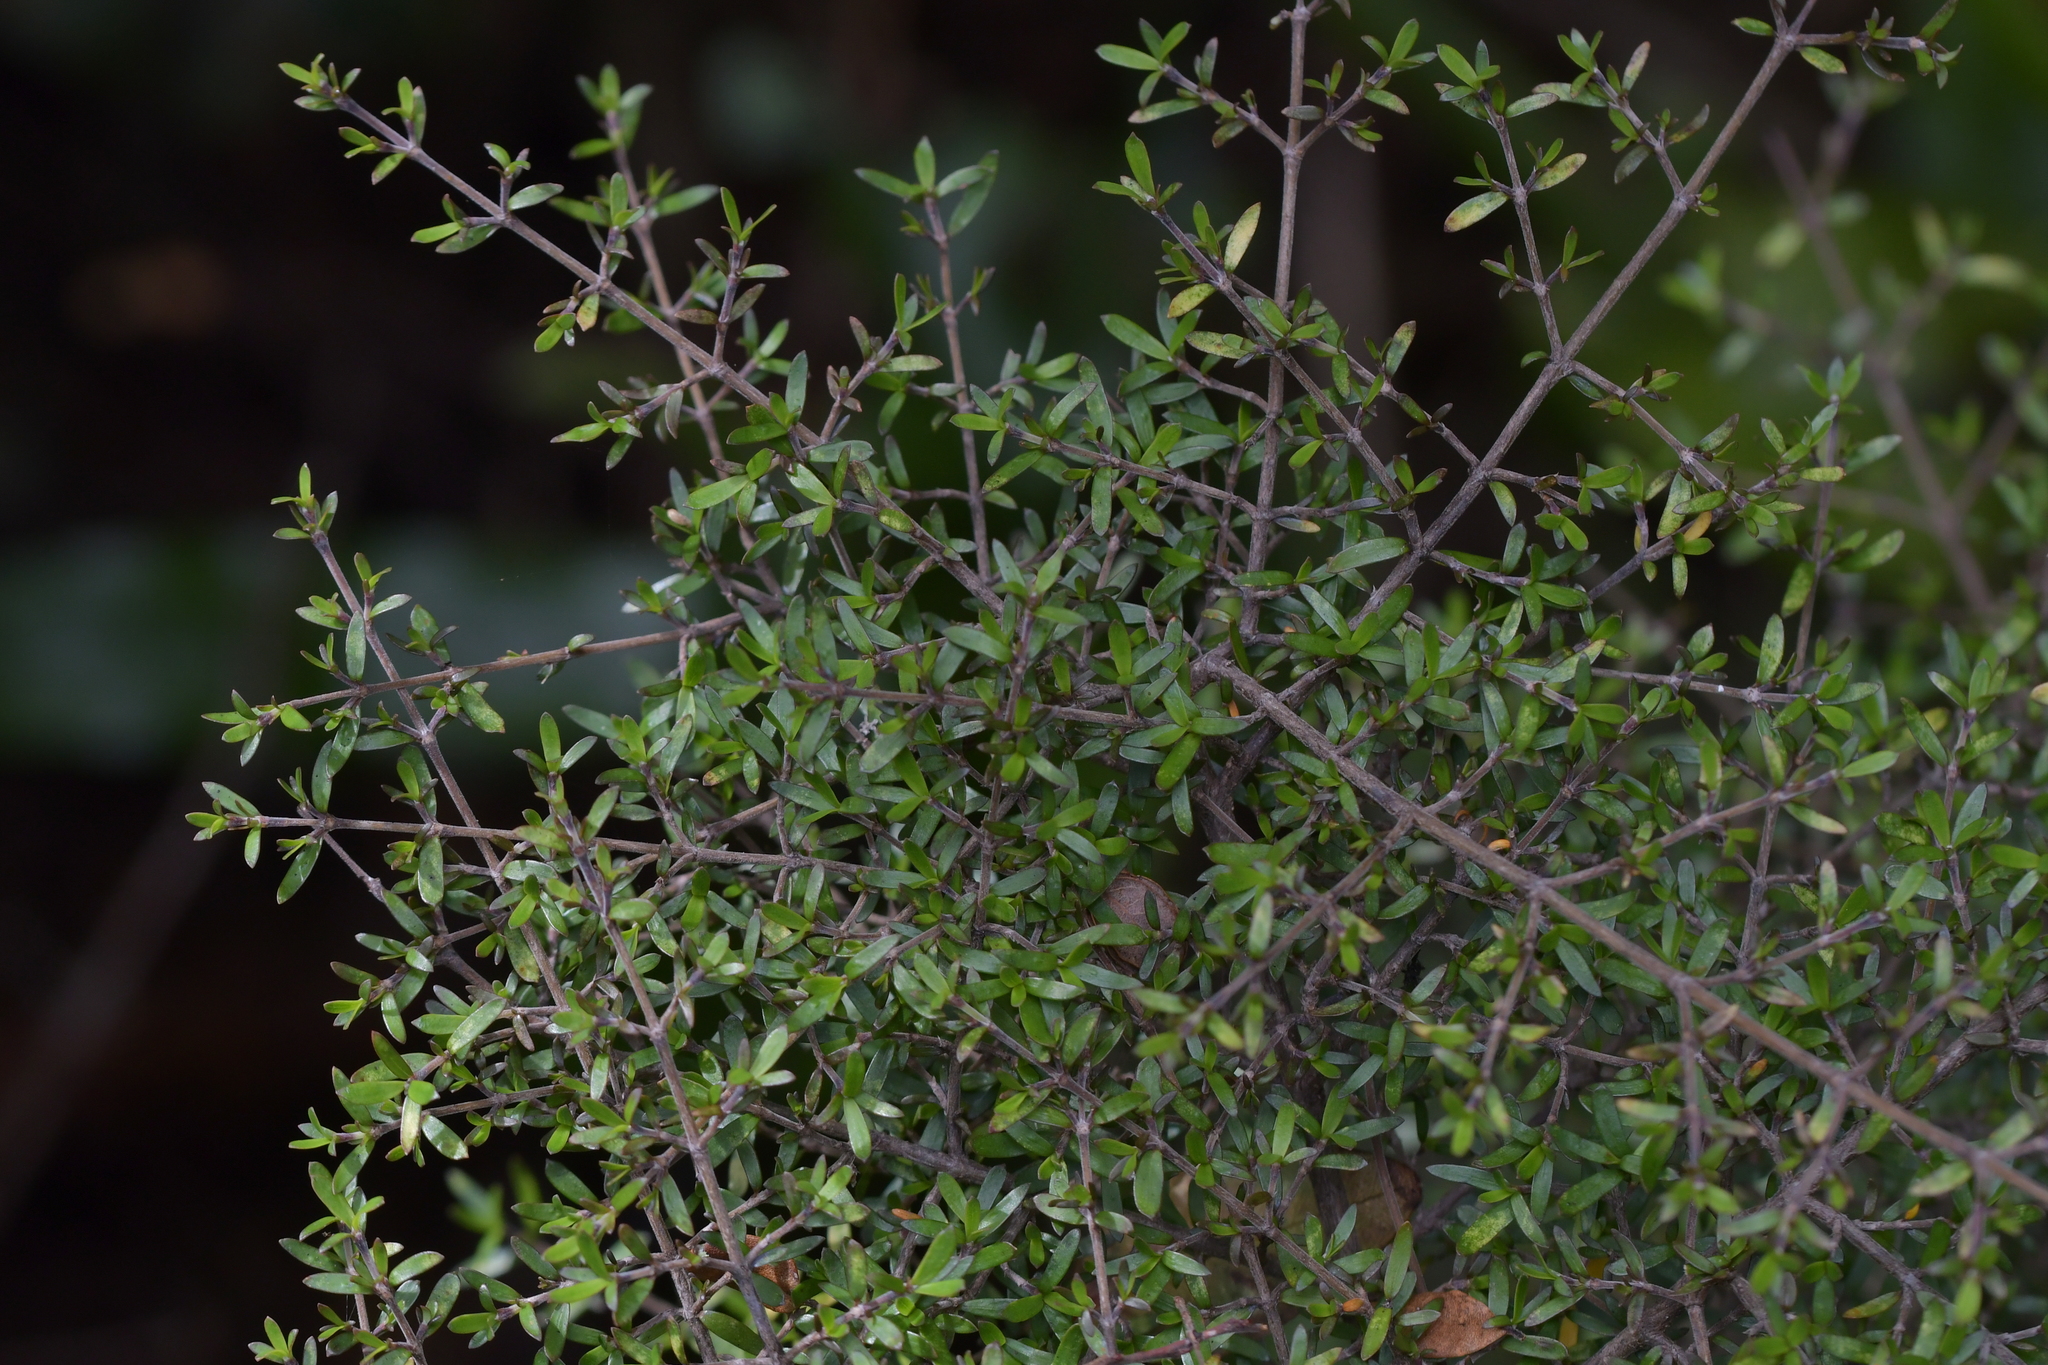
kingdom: Plantae
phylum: Tracheophyta
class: Magnoliopsida
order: Gentianales
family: Rubiaceae
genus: Coprosma
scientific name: Coprosma microcarpa
